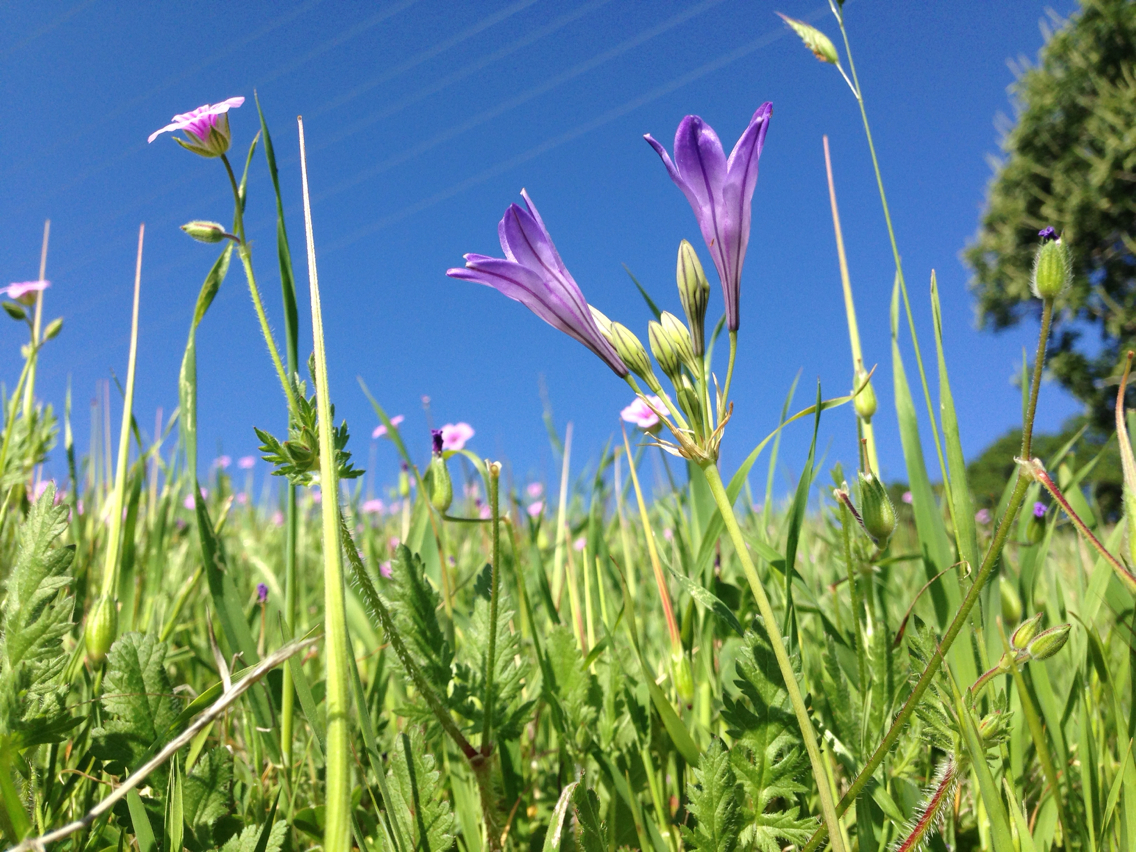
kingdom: Plantae
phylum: Tracheophyta
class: Liliopsida
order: Asparagales
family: Asparagaceae
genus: Triteleia
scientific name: Triteleia laxa
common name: Triplet-lily
